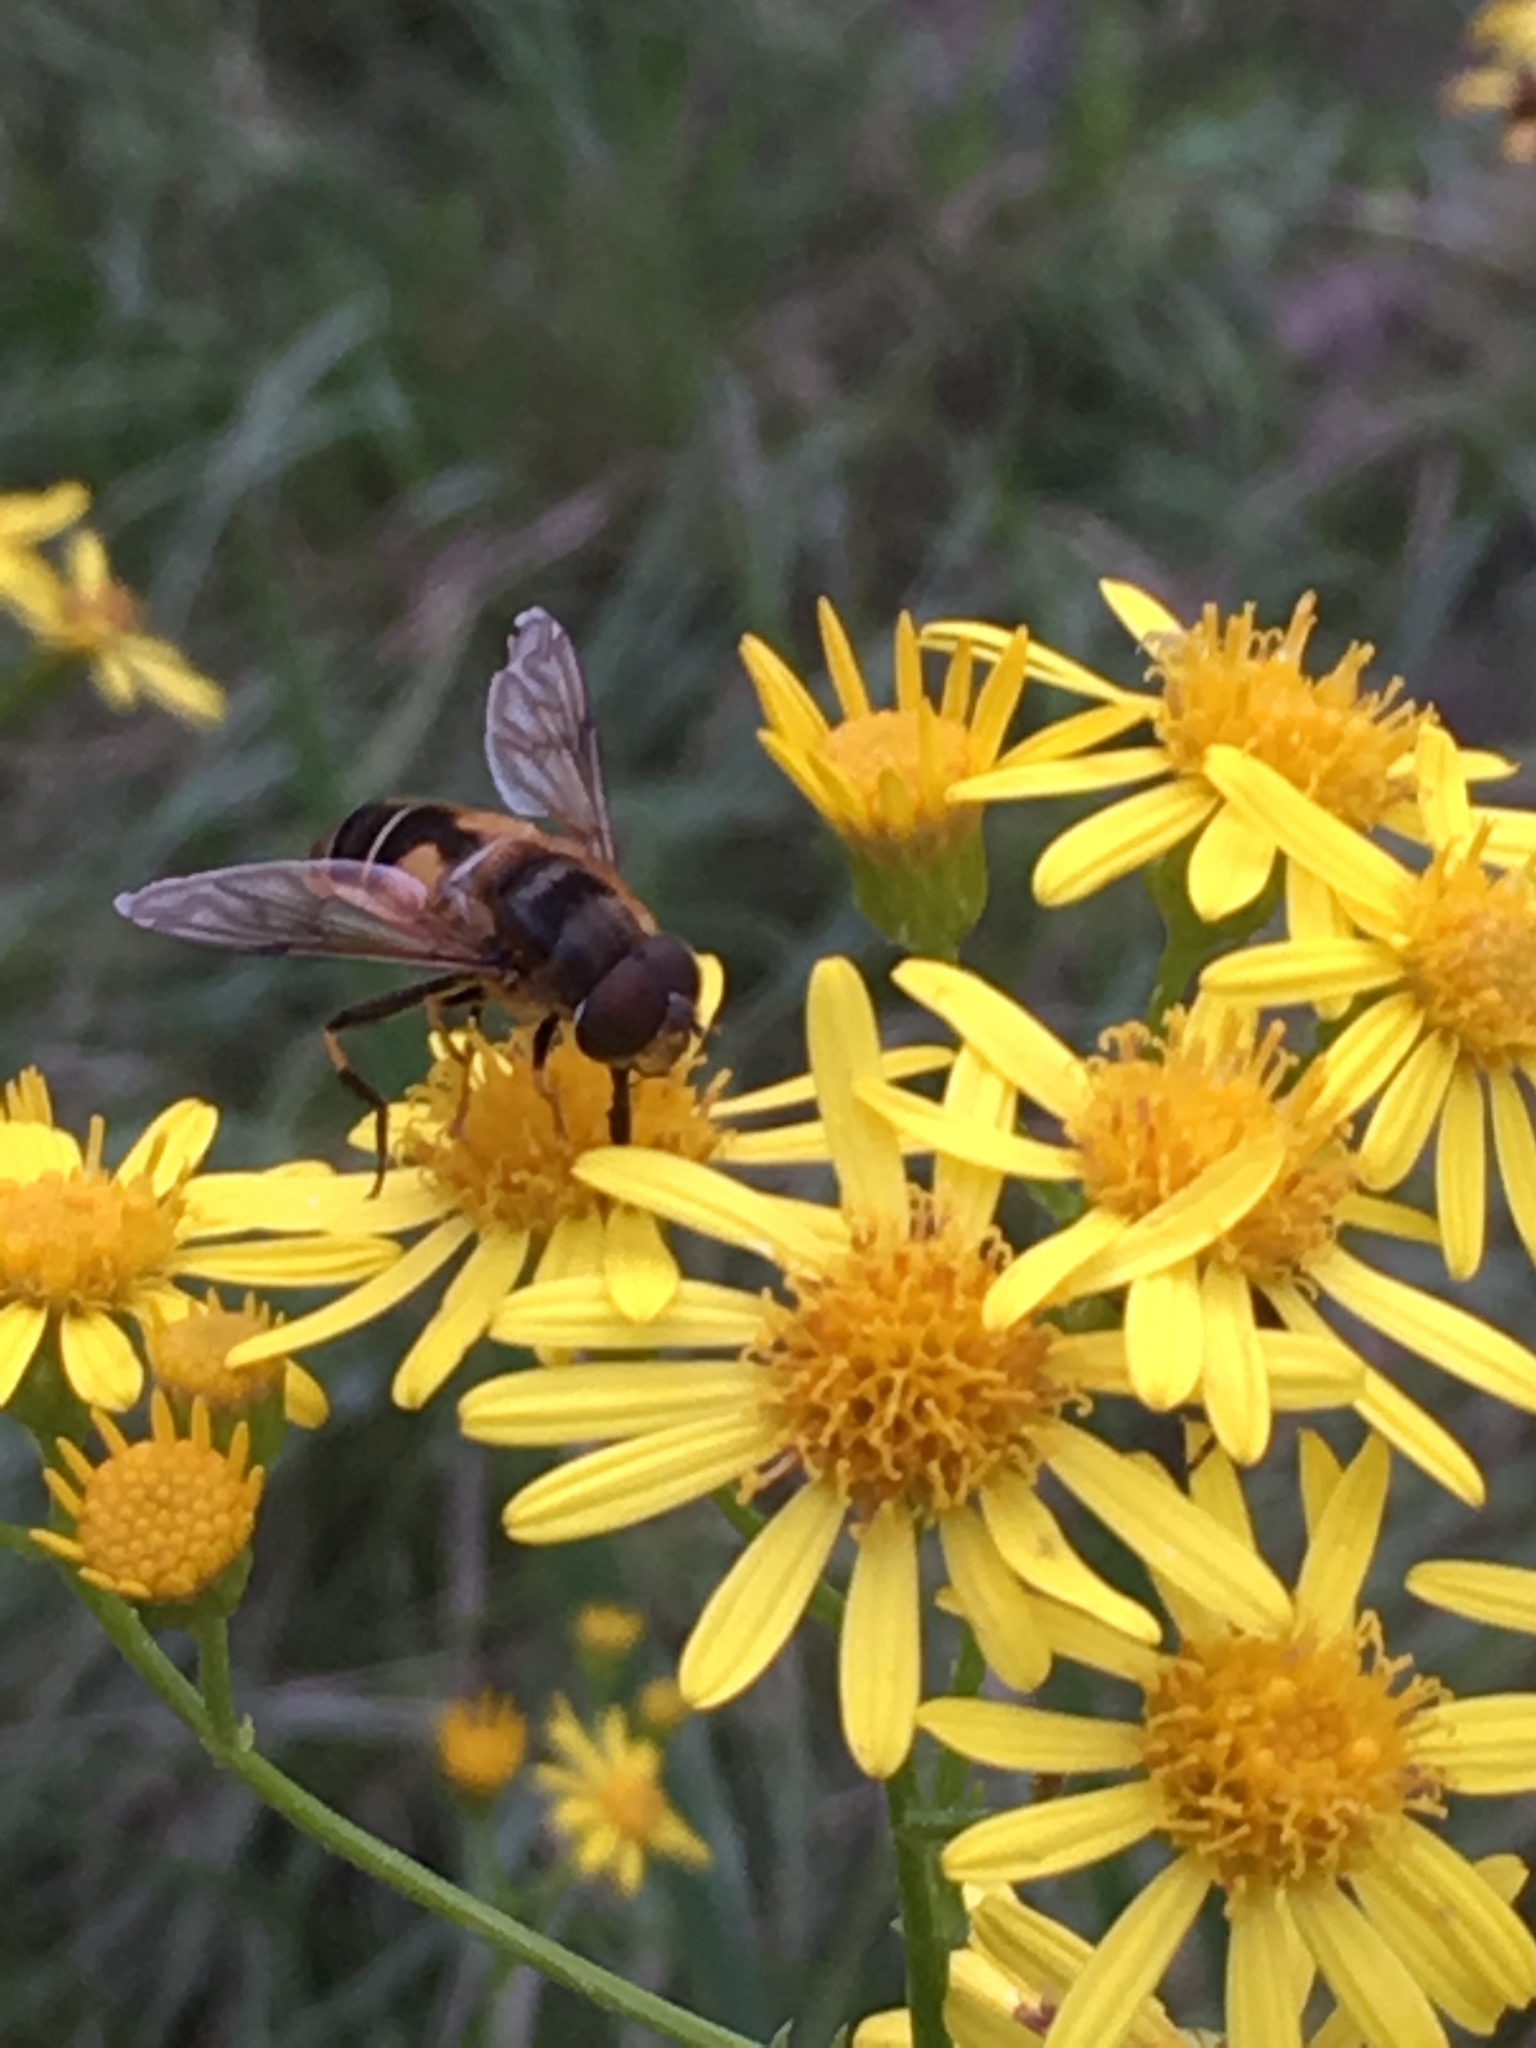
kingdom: Animalia
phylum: Arthropoda
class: Insecta
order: Diptera
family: Syrphidae
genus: Eristalis
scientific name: Eristalis pertinax
